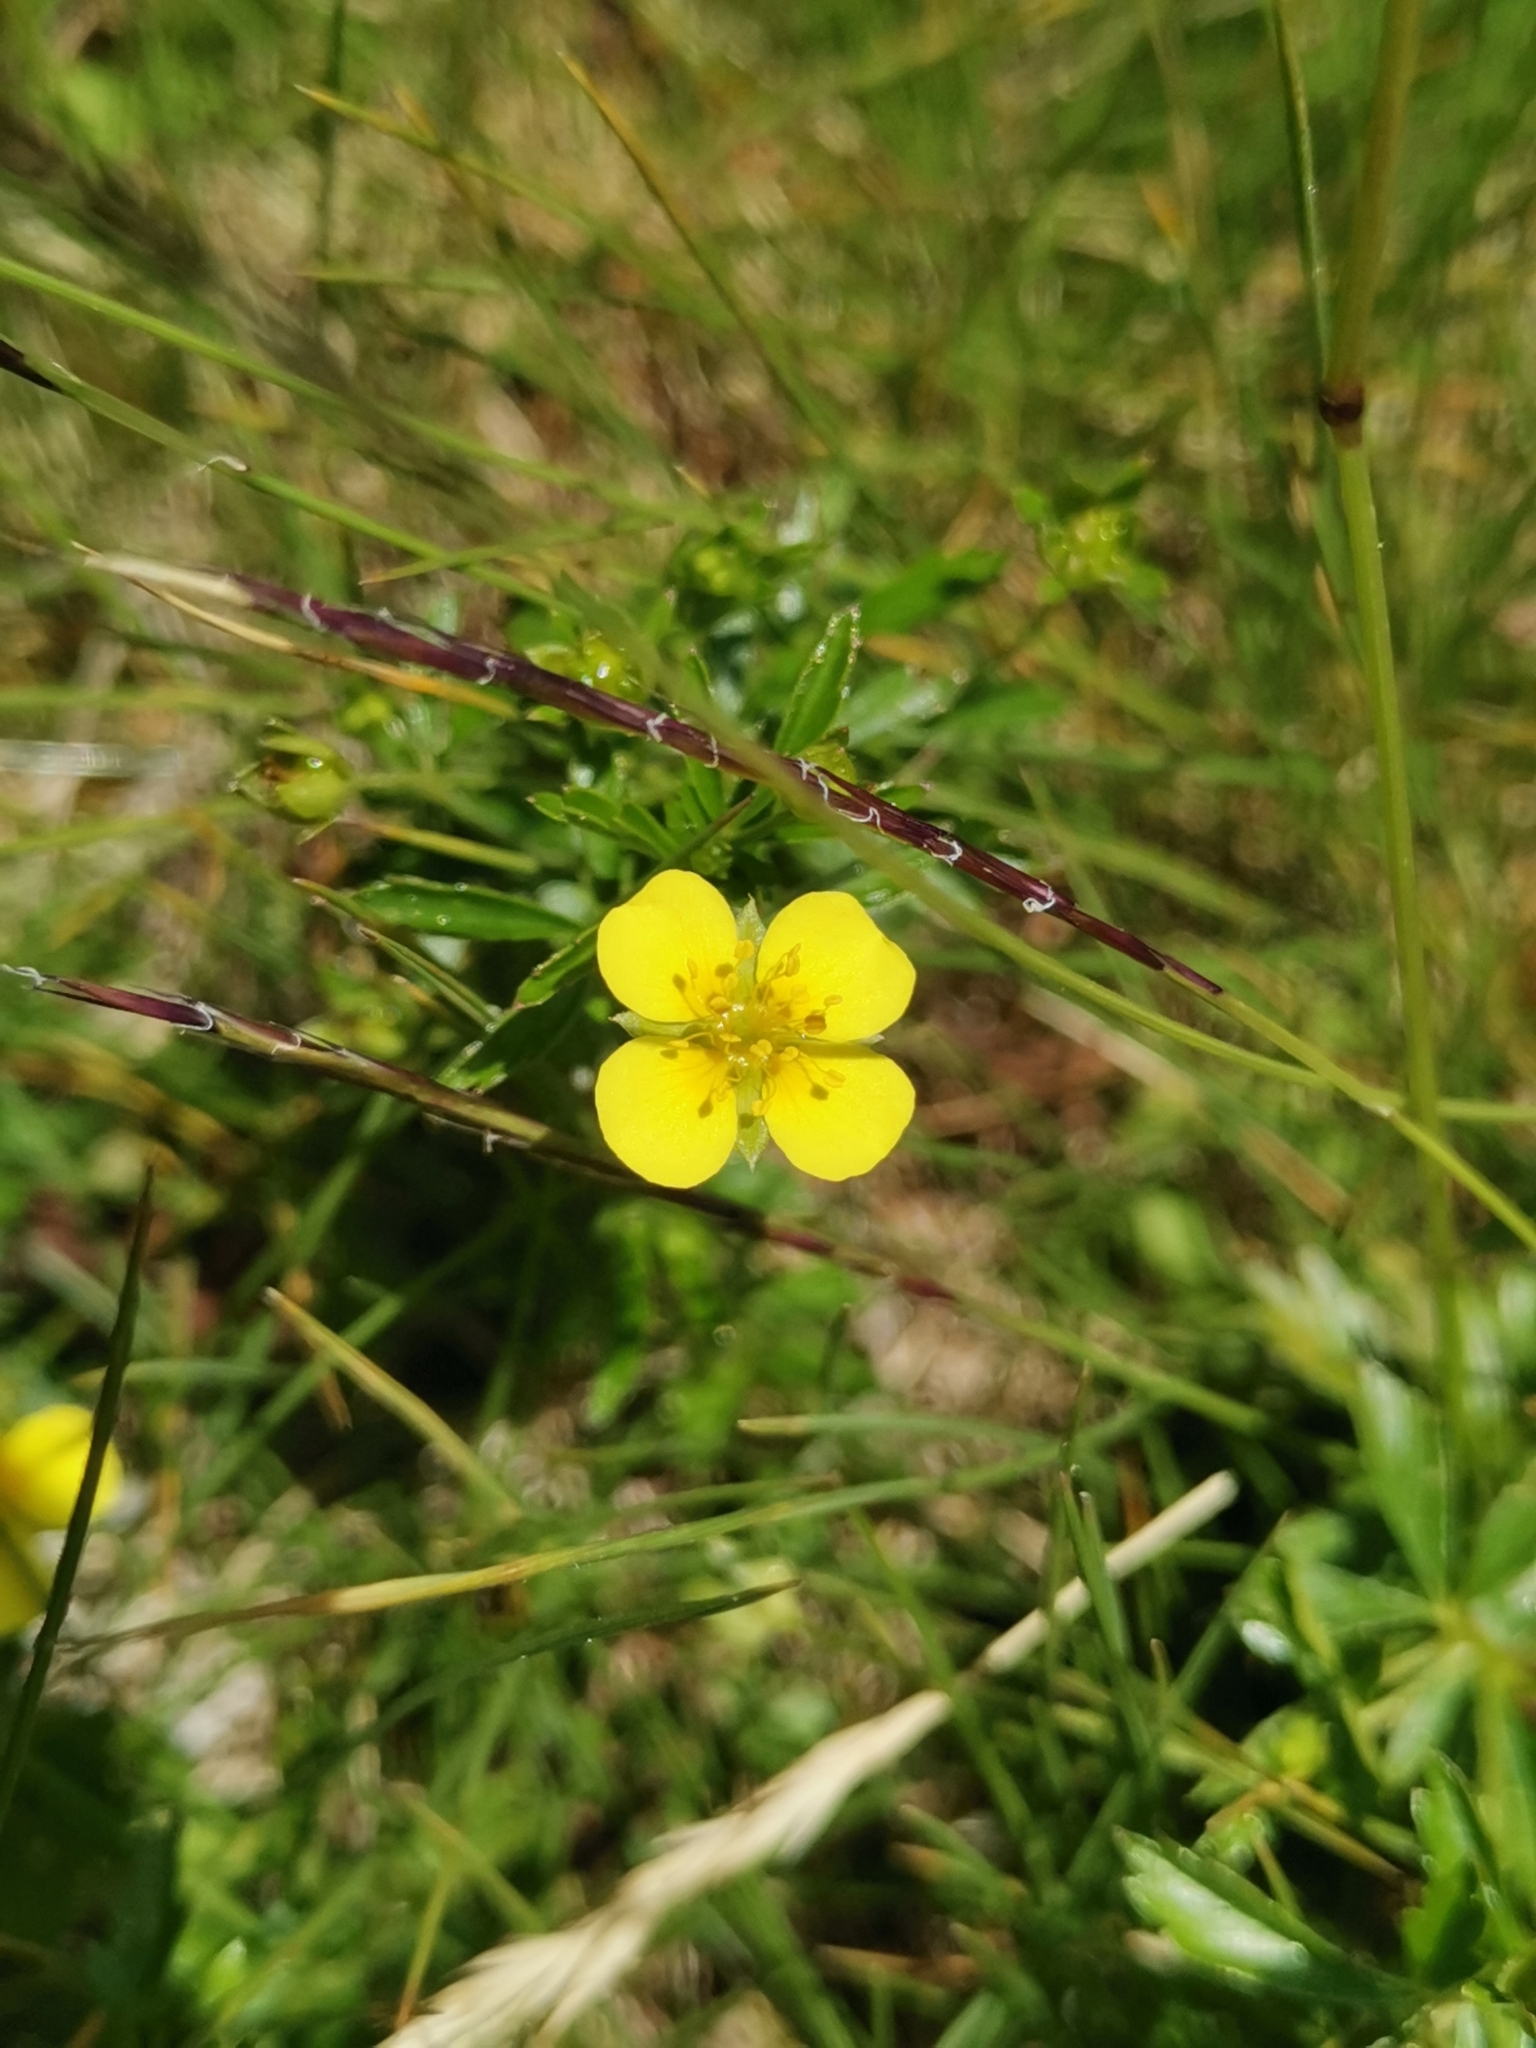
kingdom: Plantae
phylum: Tracheophyta
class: Magnoliopsida
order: Rosales
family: Rosaceae
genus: Potentilla
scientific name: Potentilla erecta
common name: Tormentil
